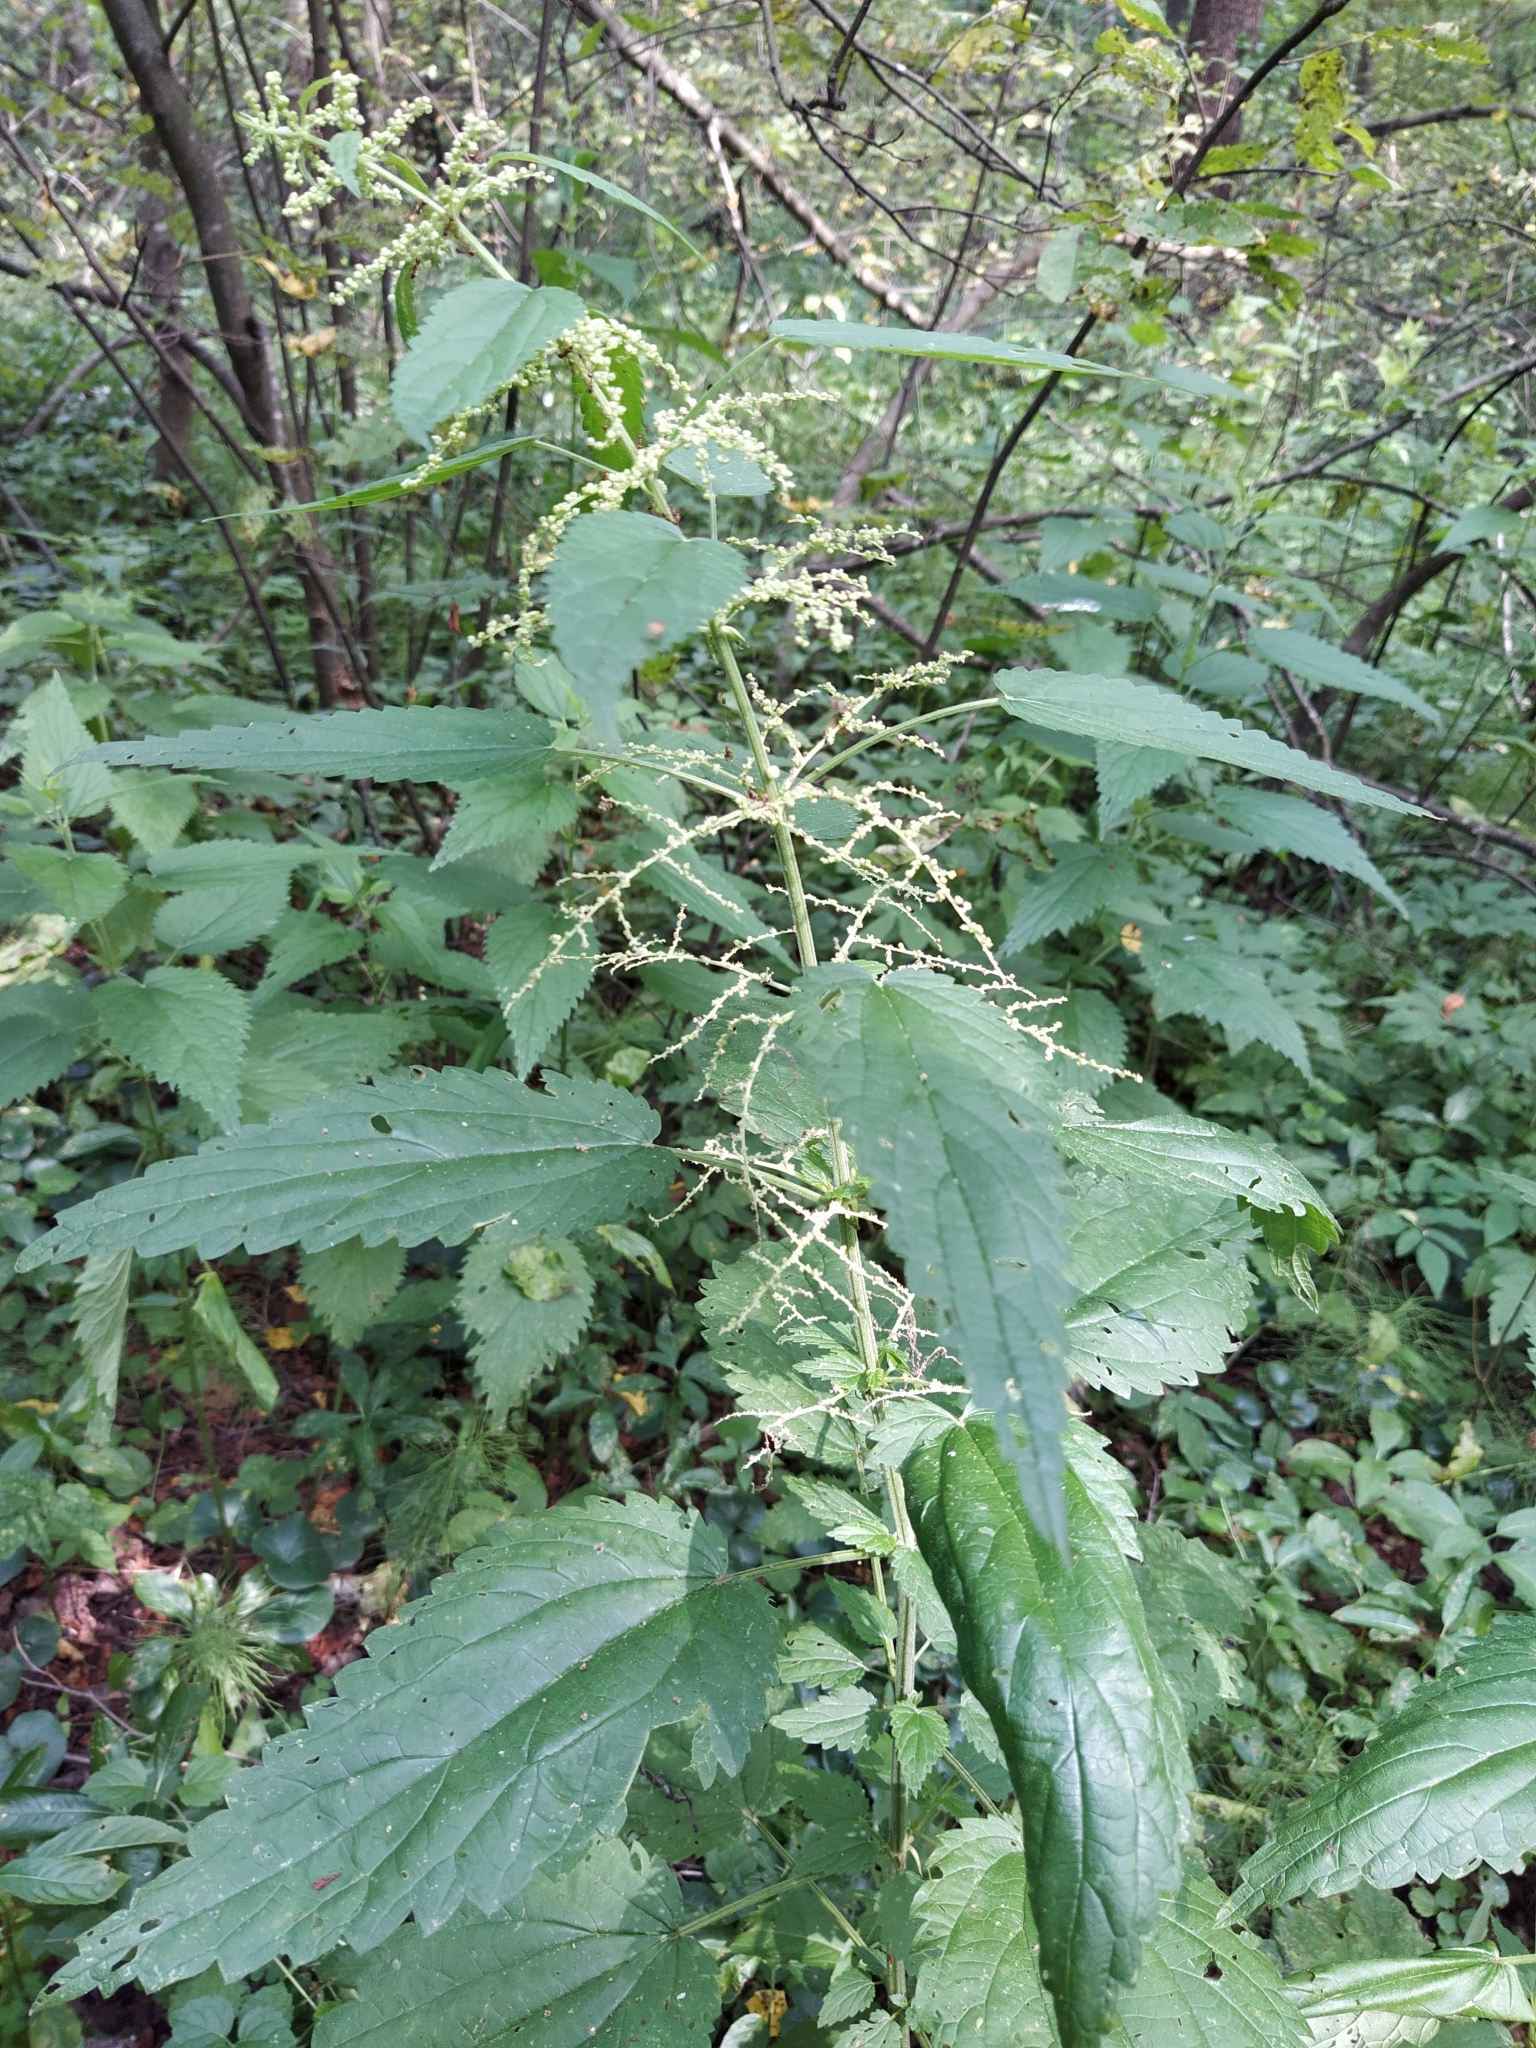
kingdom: Plantae
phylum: Tracheophyta
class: Magnoliopsida
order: Rosales
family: Urticaceae
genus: Urtica
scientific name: Urtica dioica
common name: Common nettle
